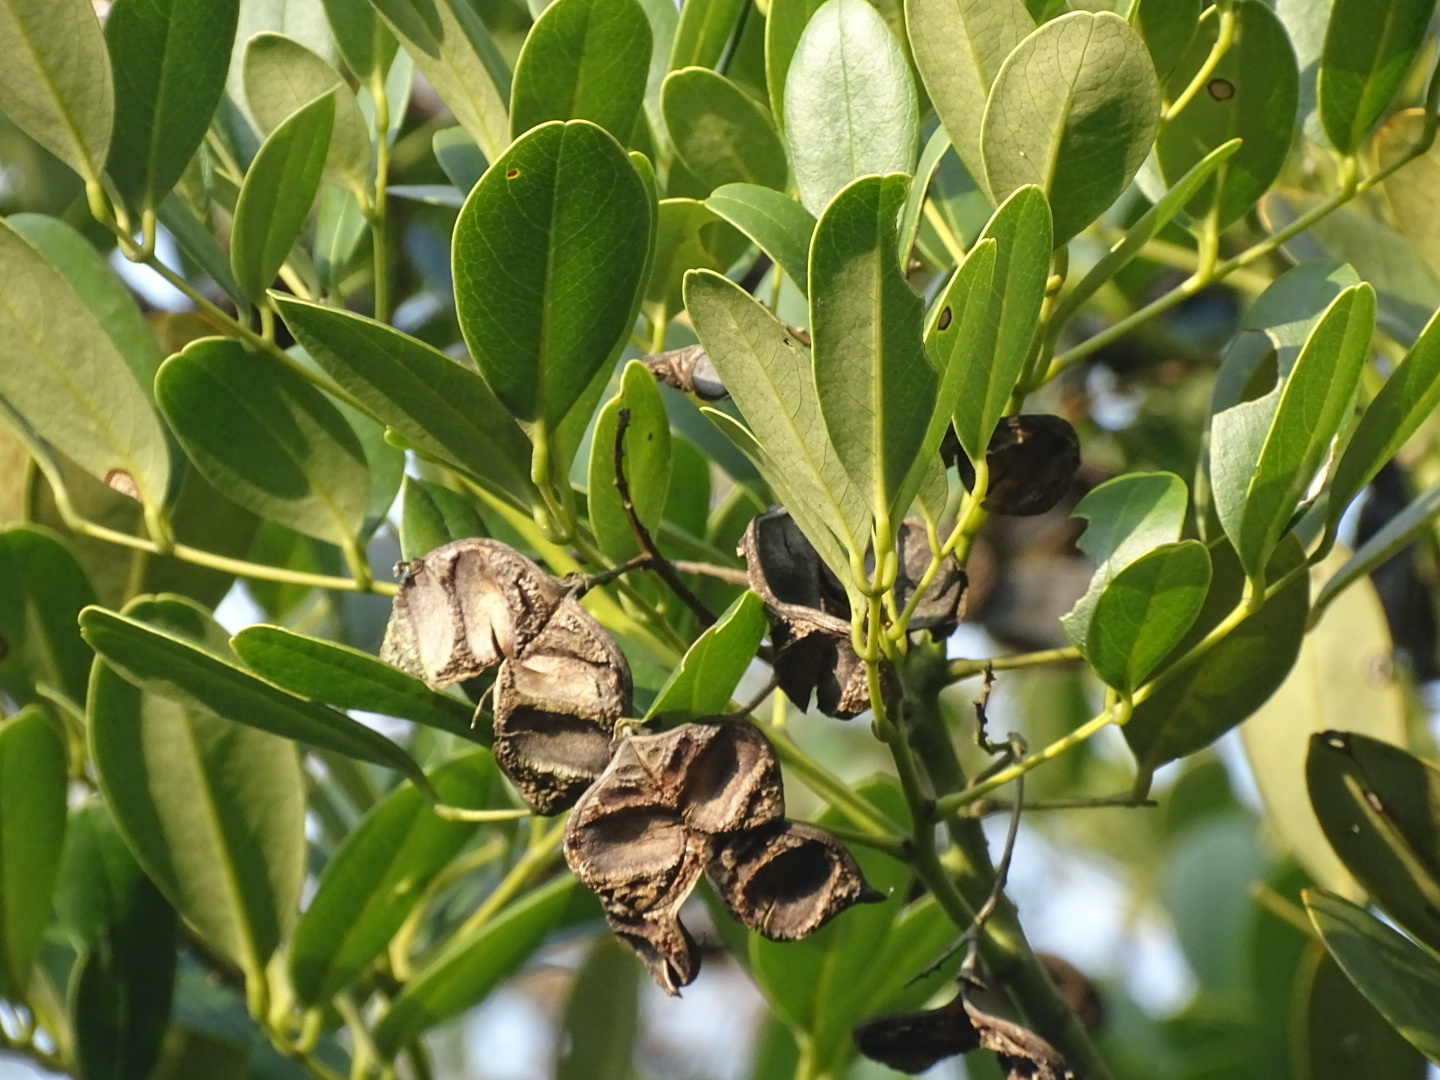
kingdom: Plantae
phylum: Tracheophyta
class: Magnoliopsida
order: Fabales
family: Fabaceae
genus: Ormosia
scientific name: Ormosia emarginata
